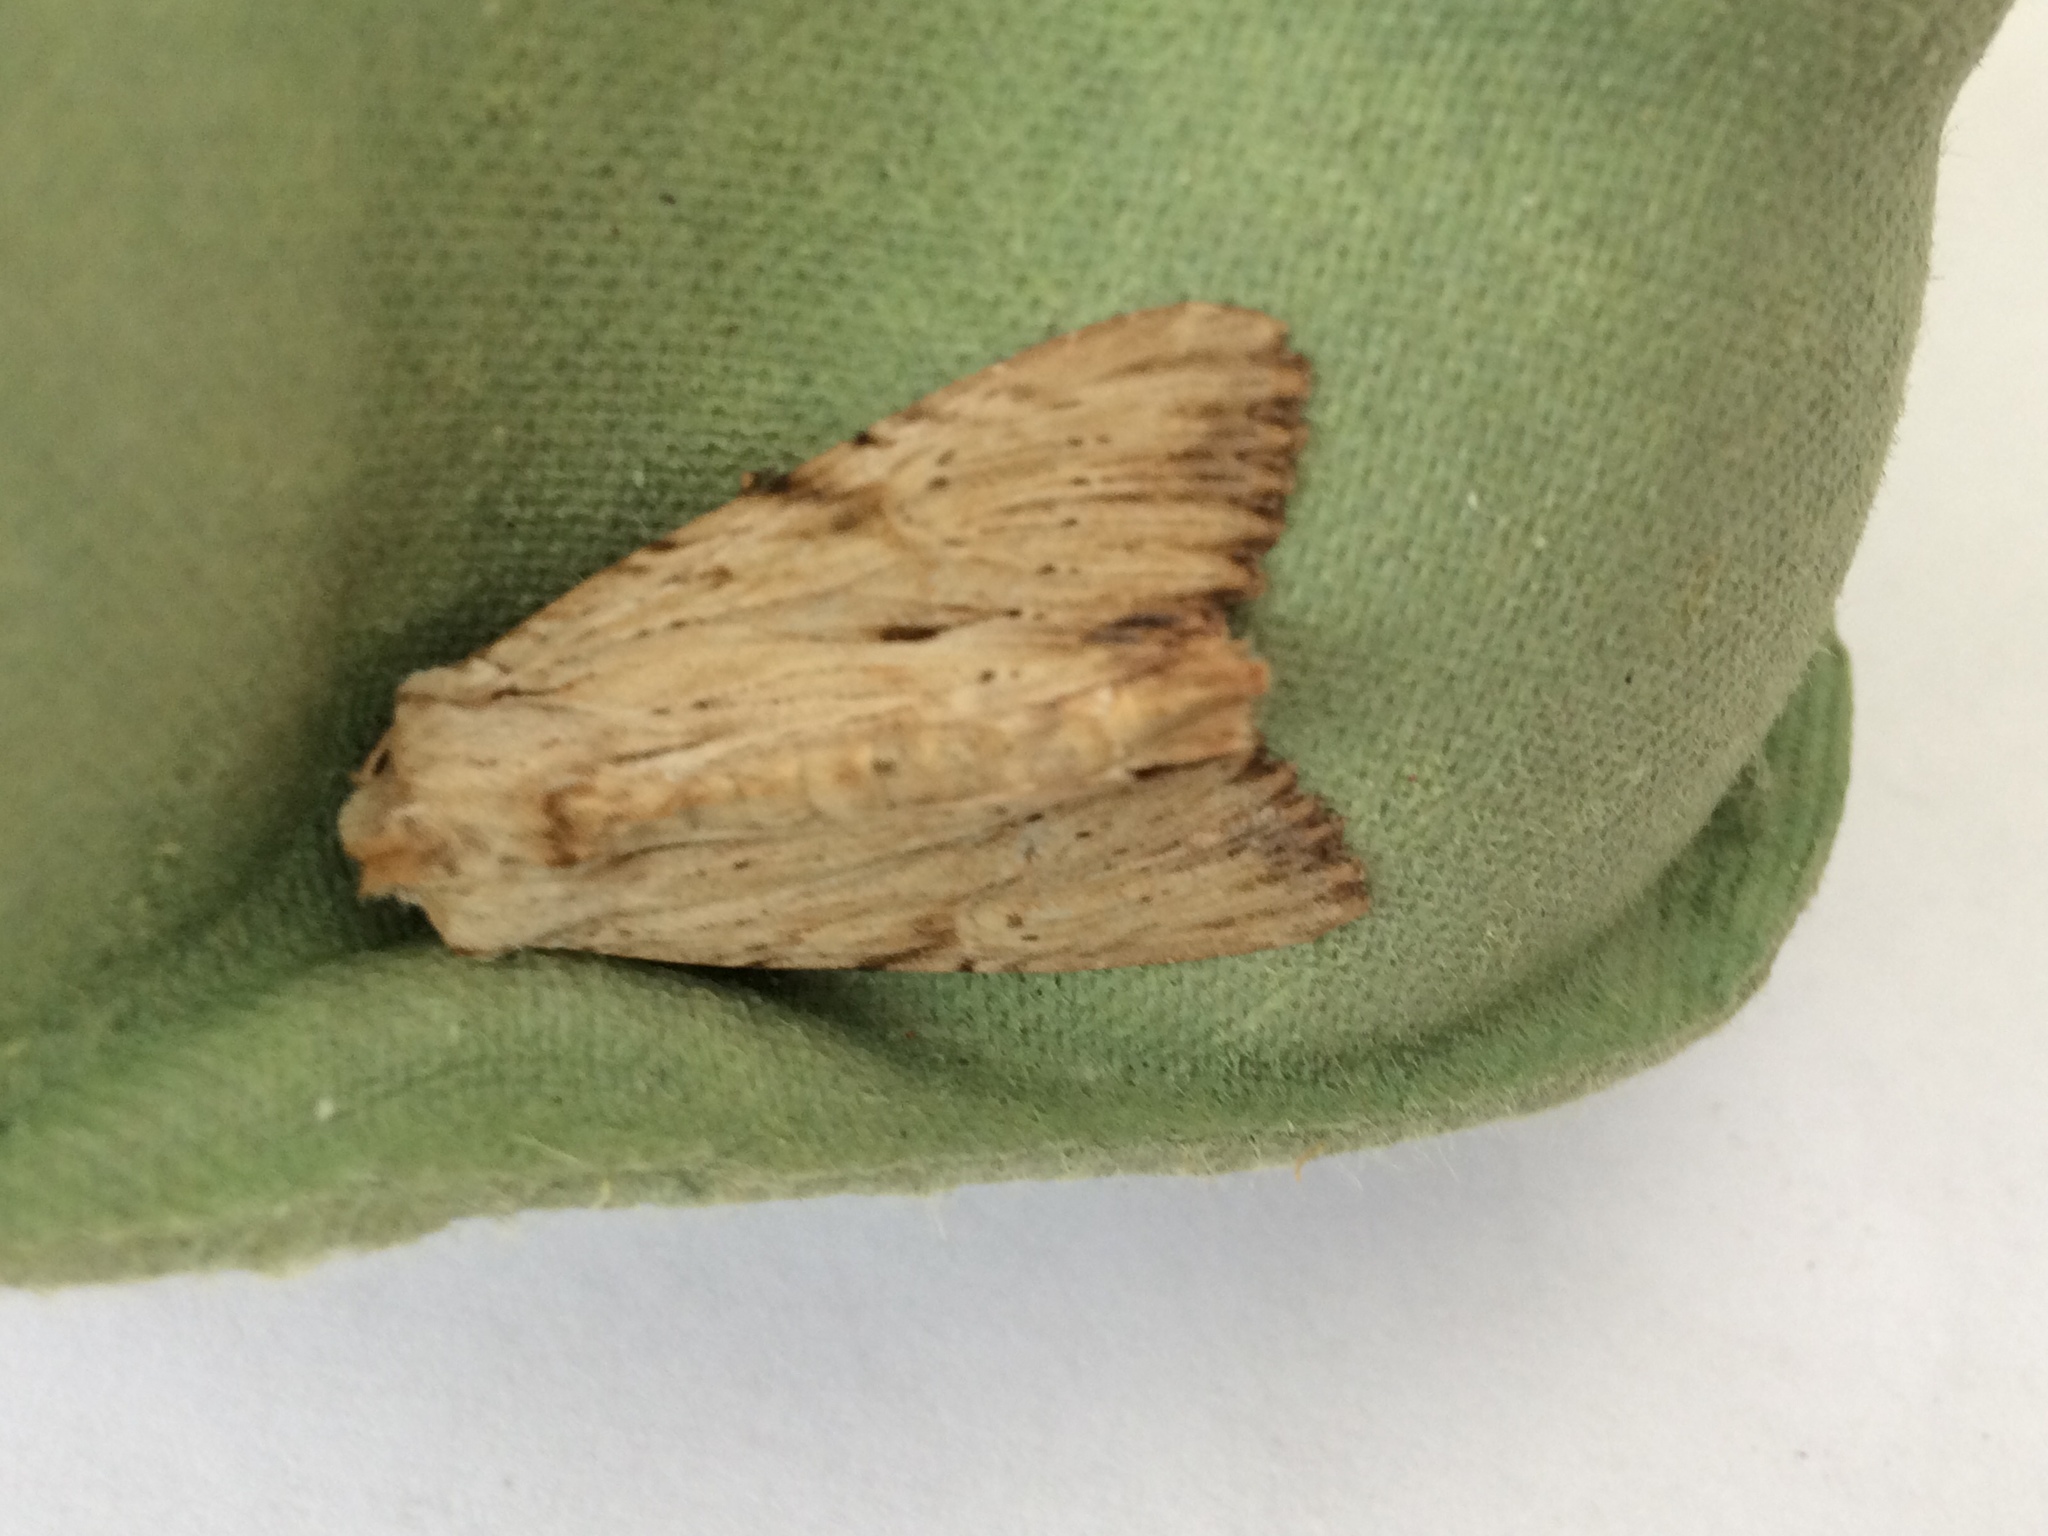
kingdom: Animalia
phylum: Arthropoda
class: Insecta
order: Lepidoptera
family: Noctuidae
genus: Apamea
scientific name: Apamea lithoxylaea
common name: Light arches
